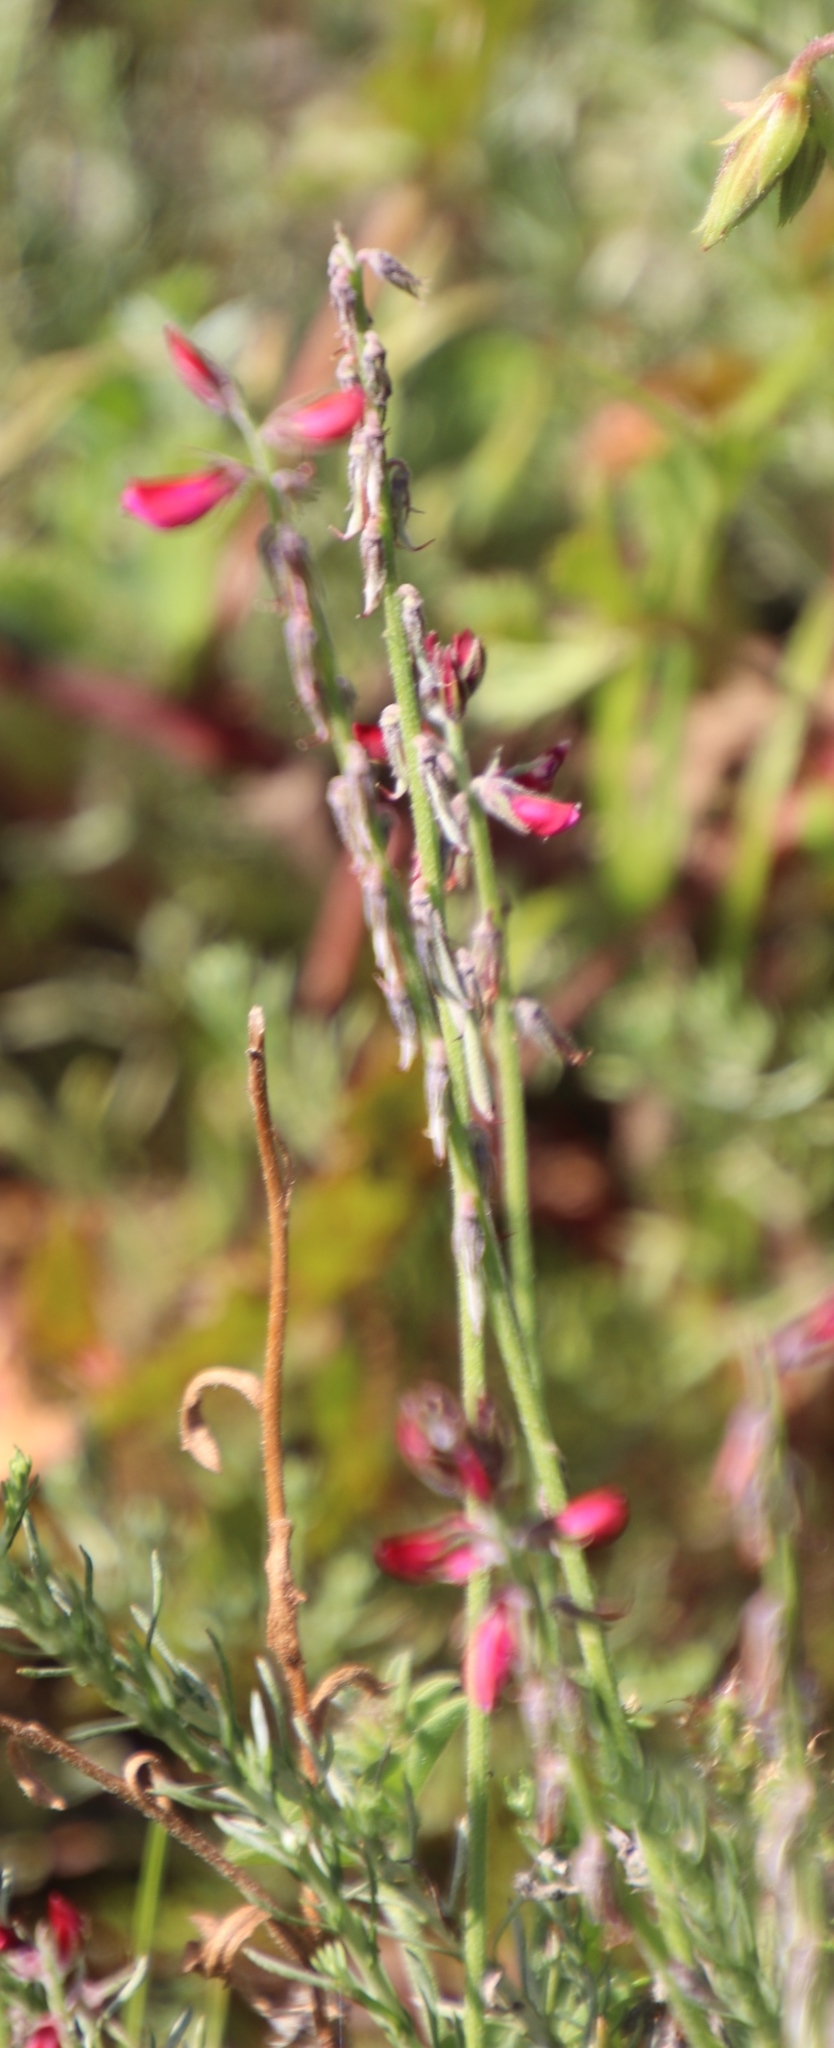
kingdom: Plantae
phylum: Tracheophyta
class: Magnoliopsida
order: Fabales
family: Fabaceae
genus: Indigofera
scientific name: Indigofera incana
